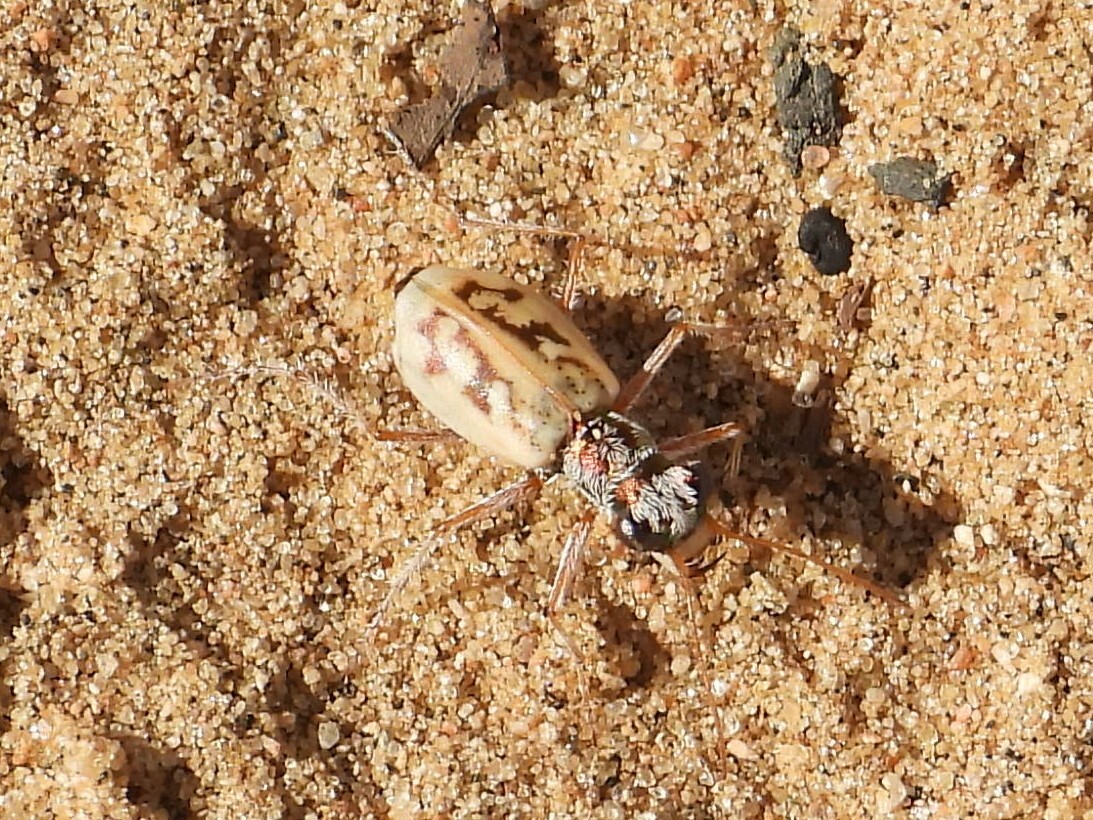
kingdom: Animalia
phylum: Arthropoda
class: Insecta
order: Coleoptera
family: Carabidae
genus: Ellipsoptera
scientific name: Ellipsoptera lepida
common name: Ghost tiger beetle
